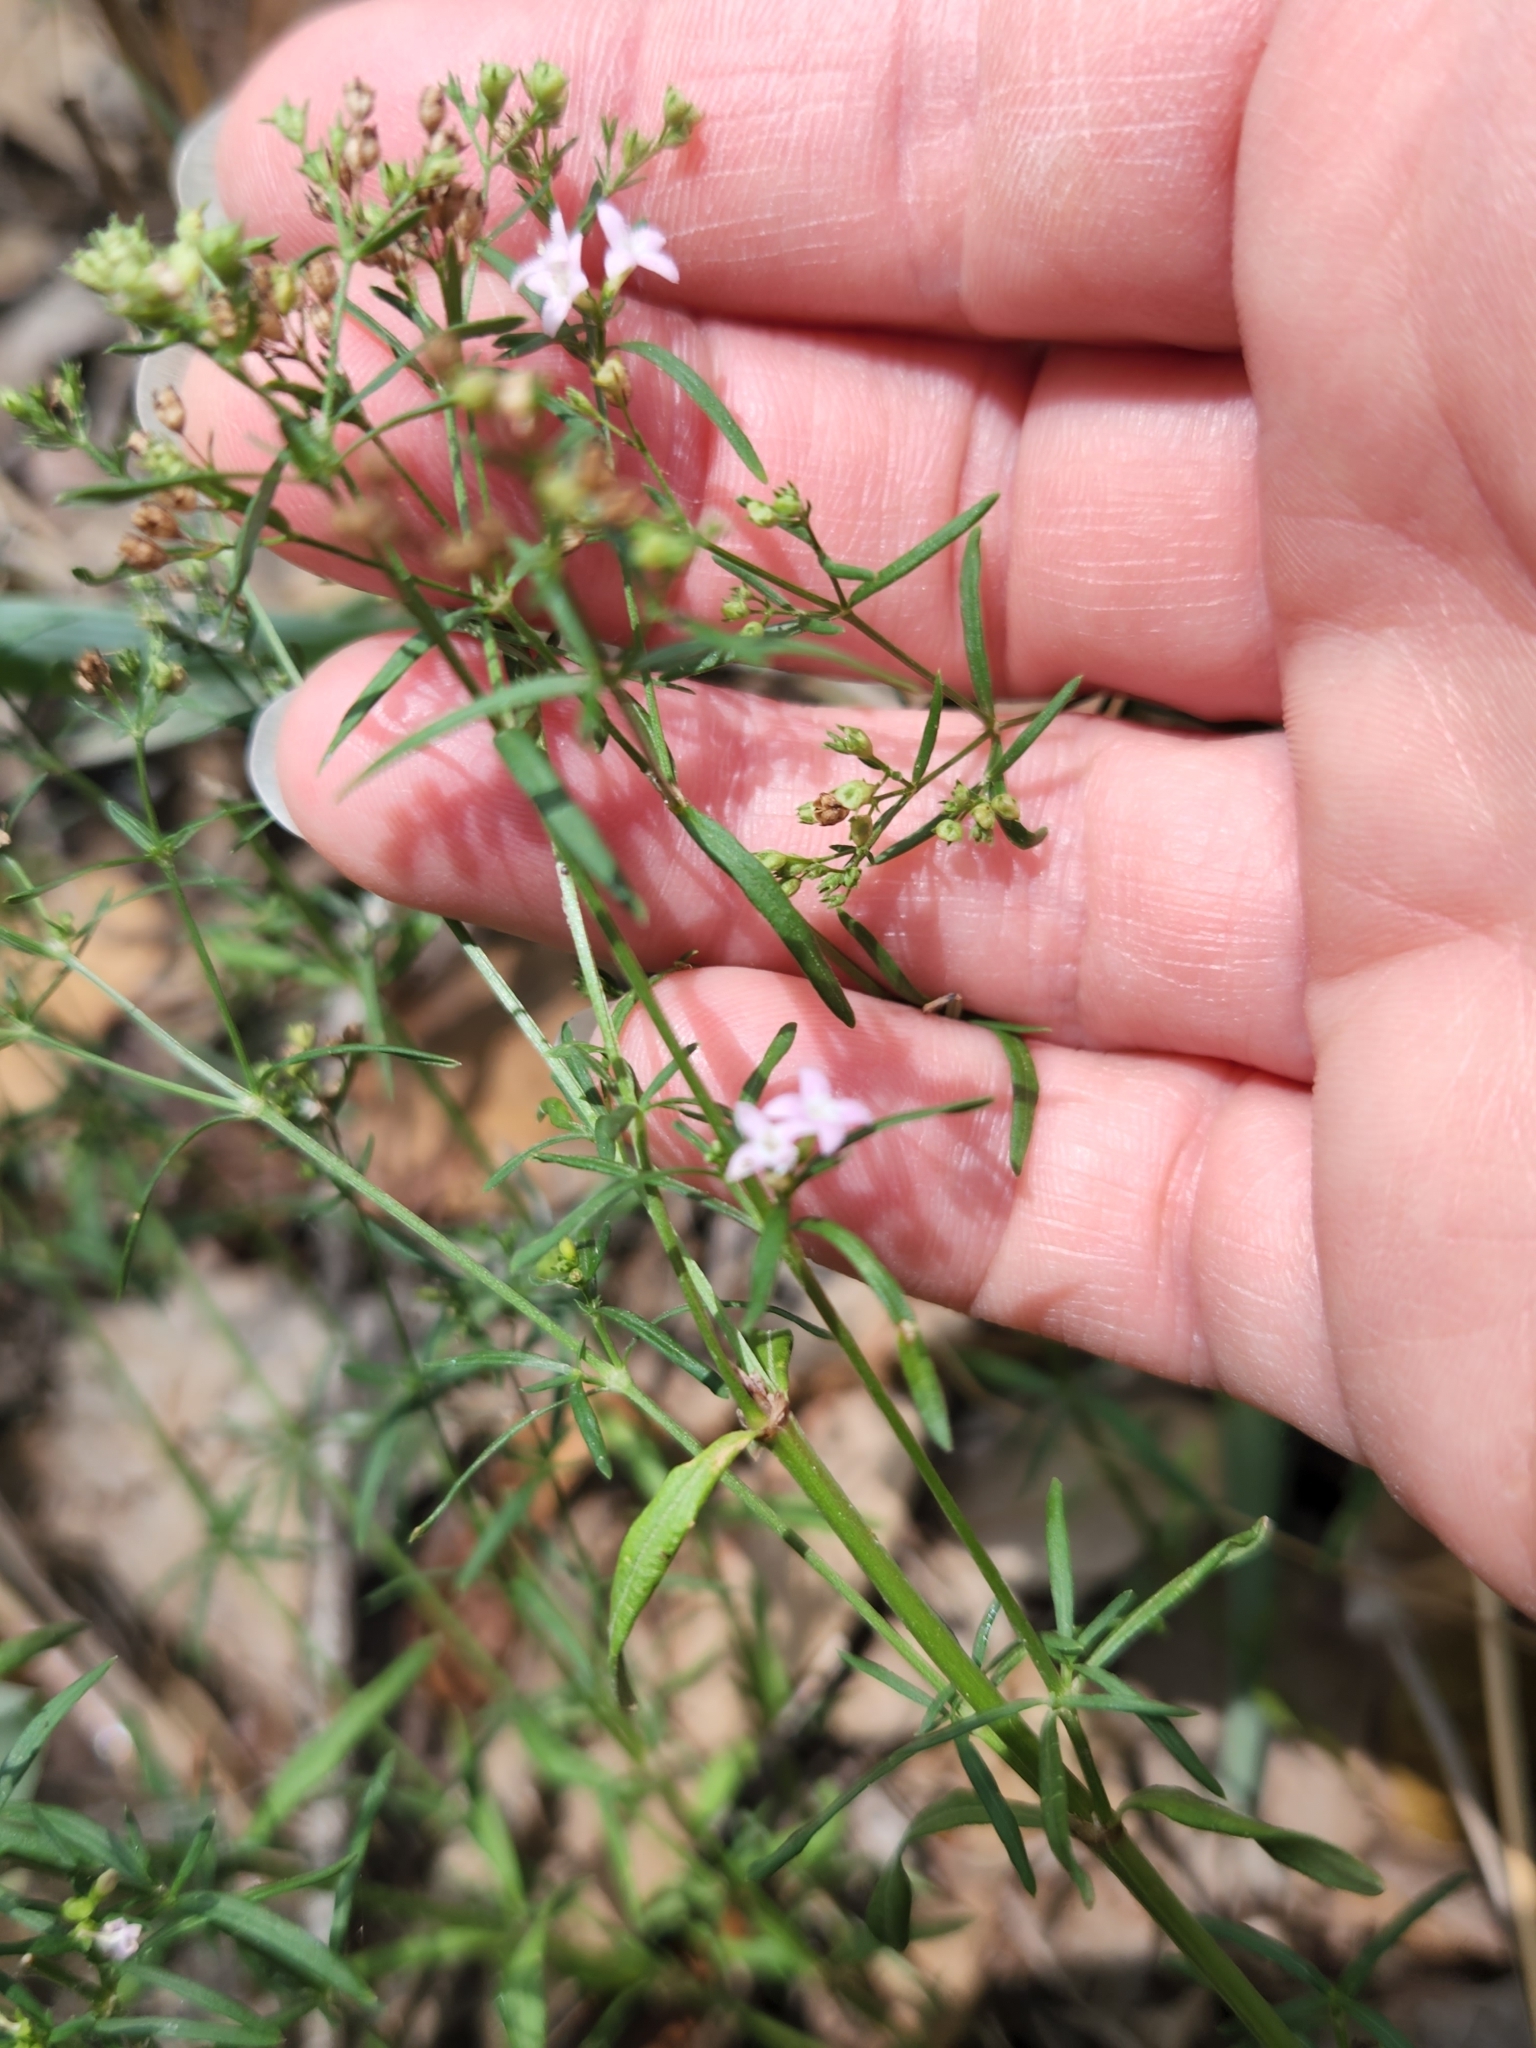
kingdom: Plantae
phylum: Tracheophyta
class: Magnoliopsida
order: Gentianales
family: Rubiaceae
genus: Stenaria
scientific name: Stenaria nigricans
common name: Diamondflowers
